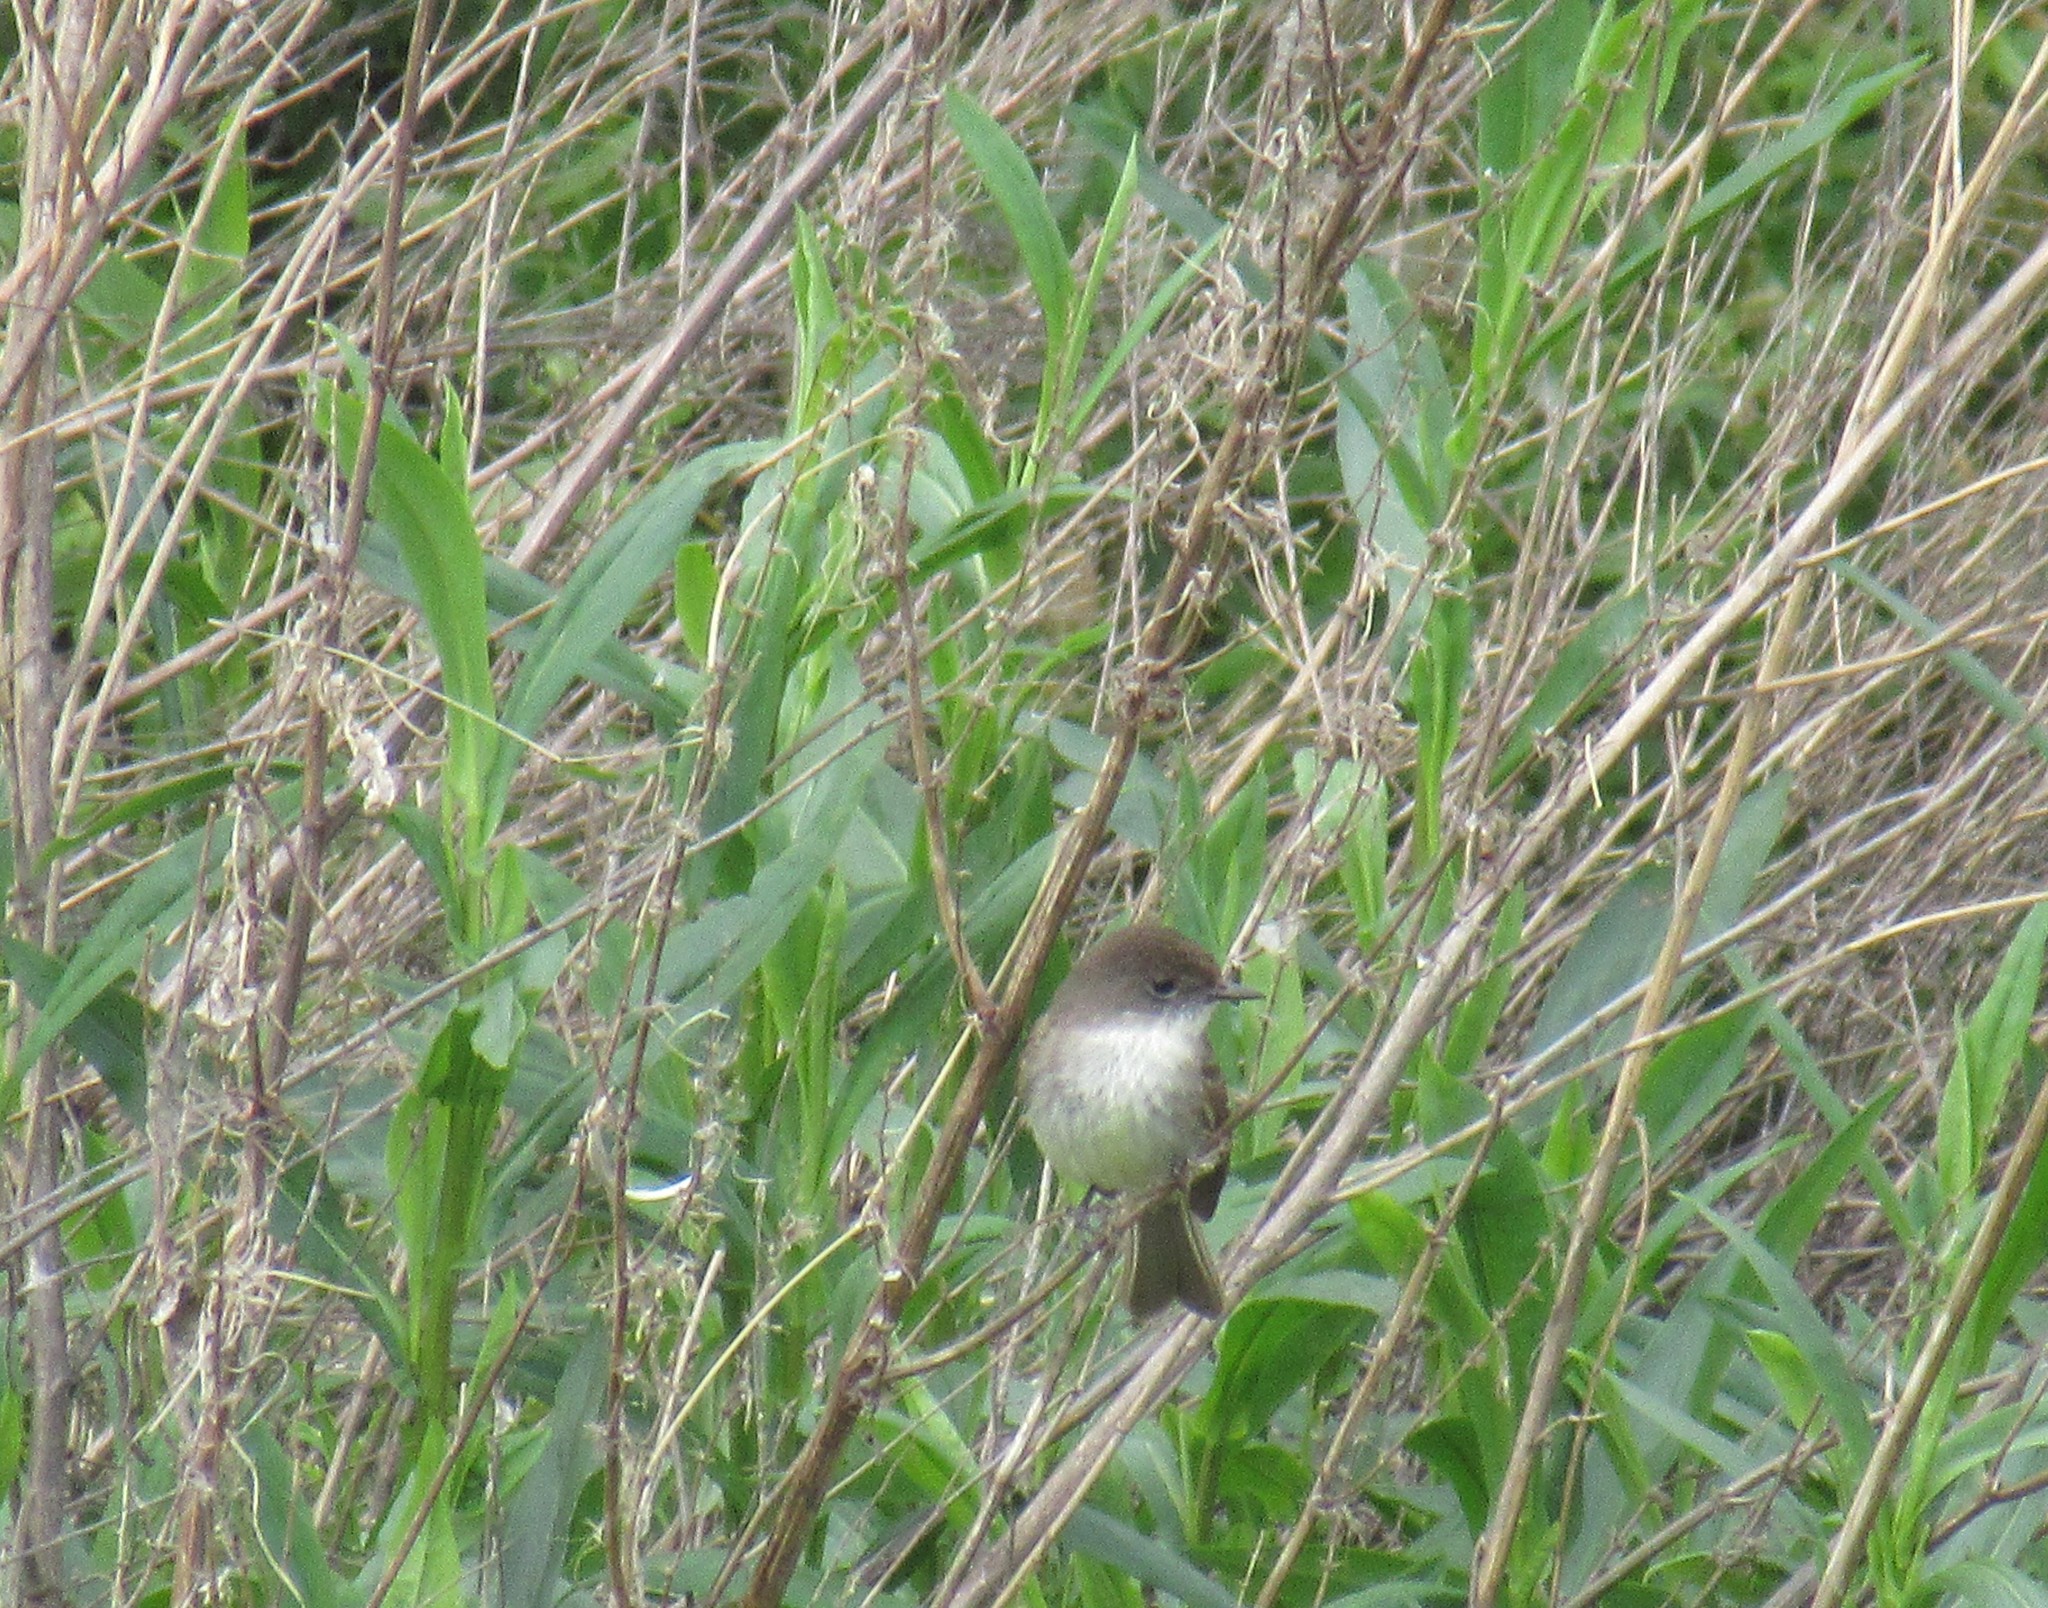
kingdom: Animalia
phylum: Chordata
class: Aves
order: Passeriformes
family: Tyrannidae
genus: Sayornis
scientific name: Sayornis phoebe
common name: Eastern phoebe
